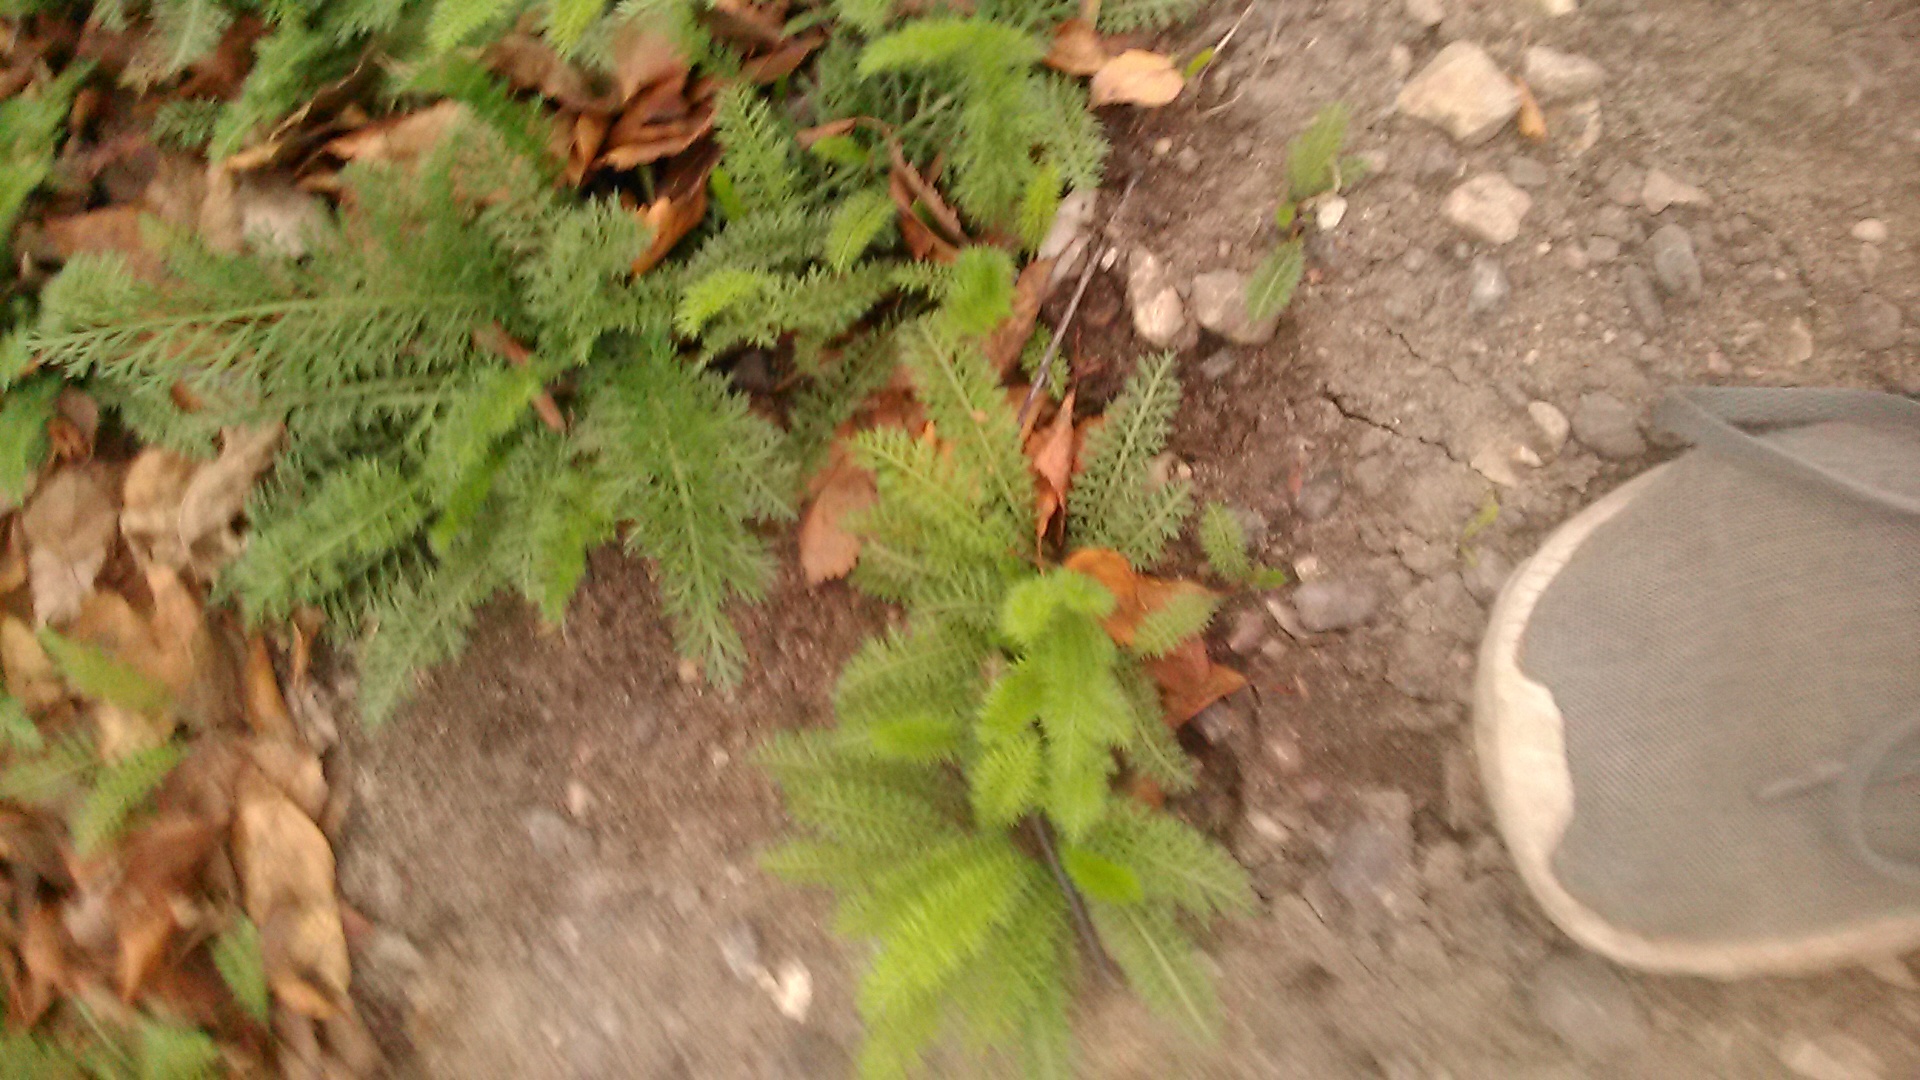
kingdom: Plantae
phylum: Tracheophyta
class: Magnoliopsida
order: Asterales
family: Asteraceae
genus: Achillea
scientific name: Achillea millefolium
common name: Yarrow
